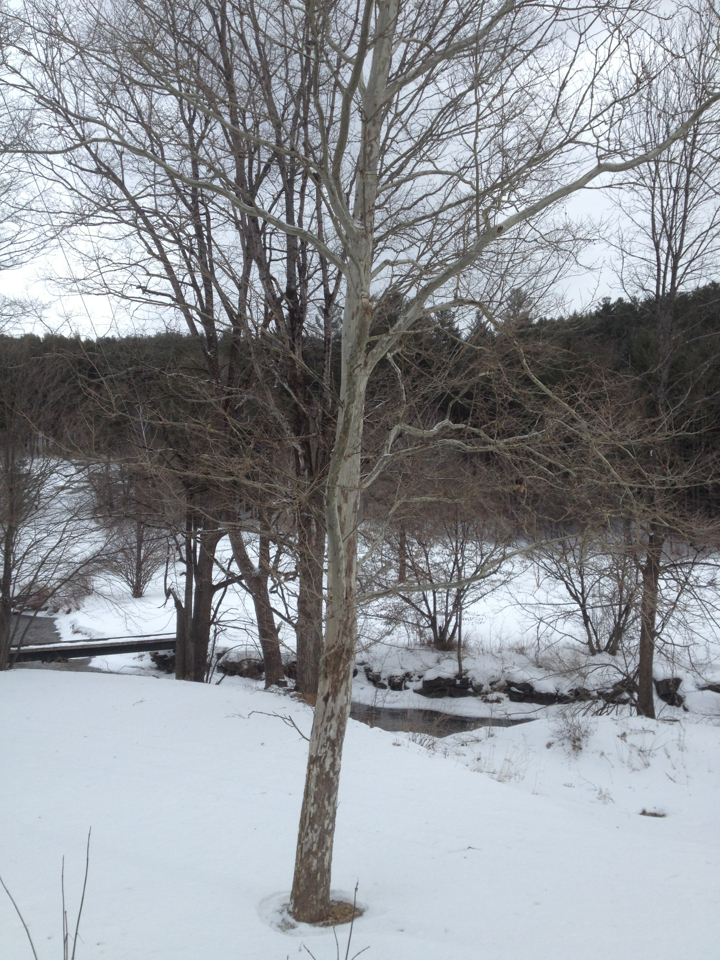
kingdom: Plantae
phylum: Tracheophyta
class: Magnoliopsida
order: Proteales
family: Platanaceae
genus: Platanus
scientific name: Platanus occidentalis
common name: American sycamore
